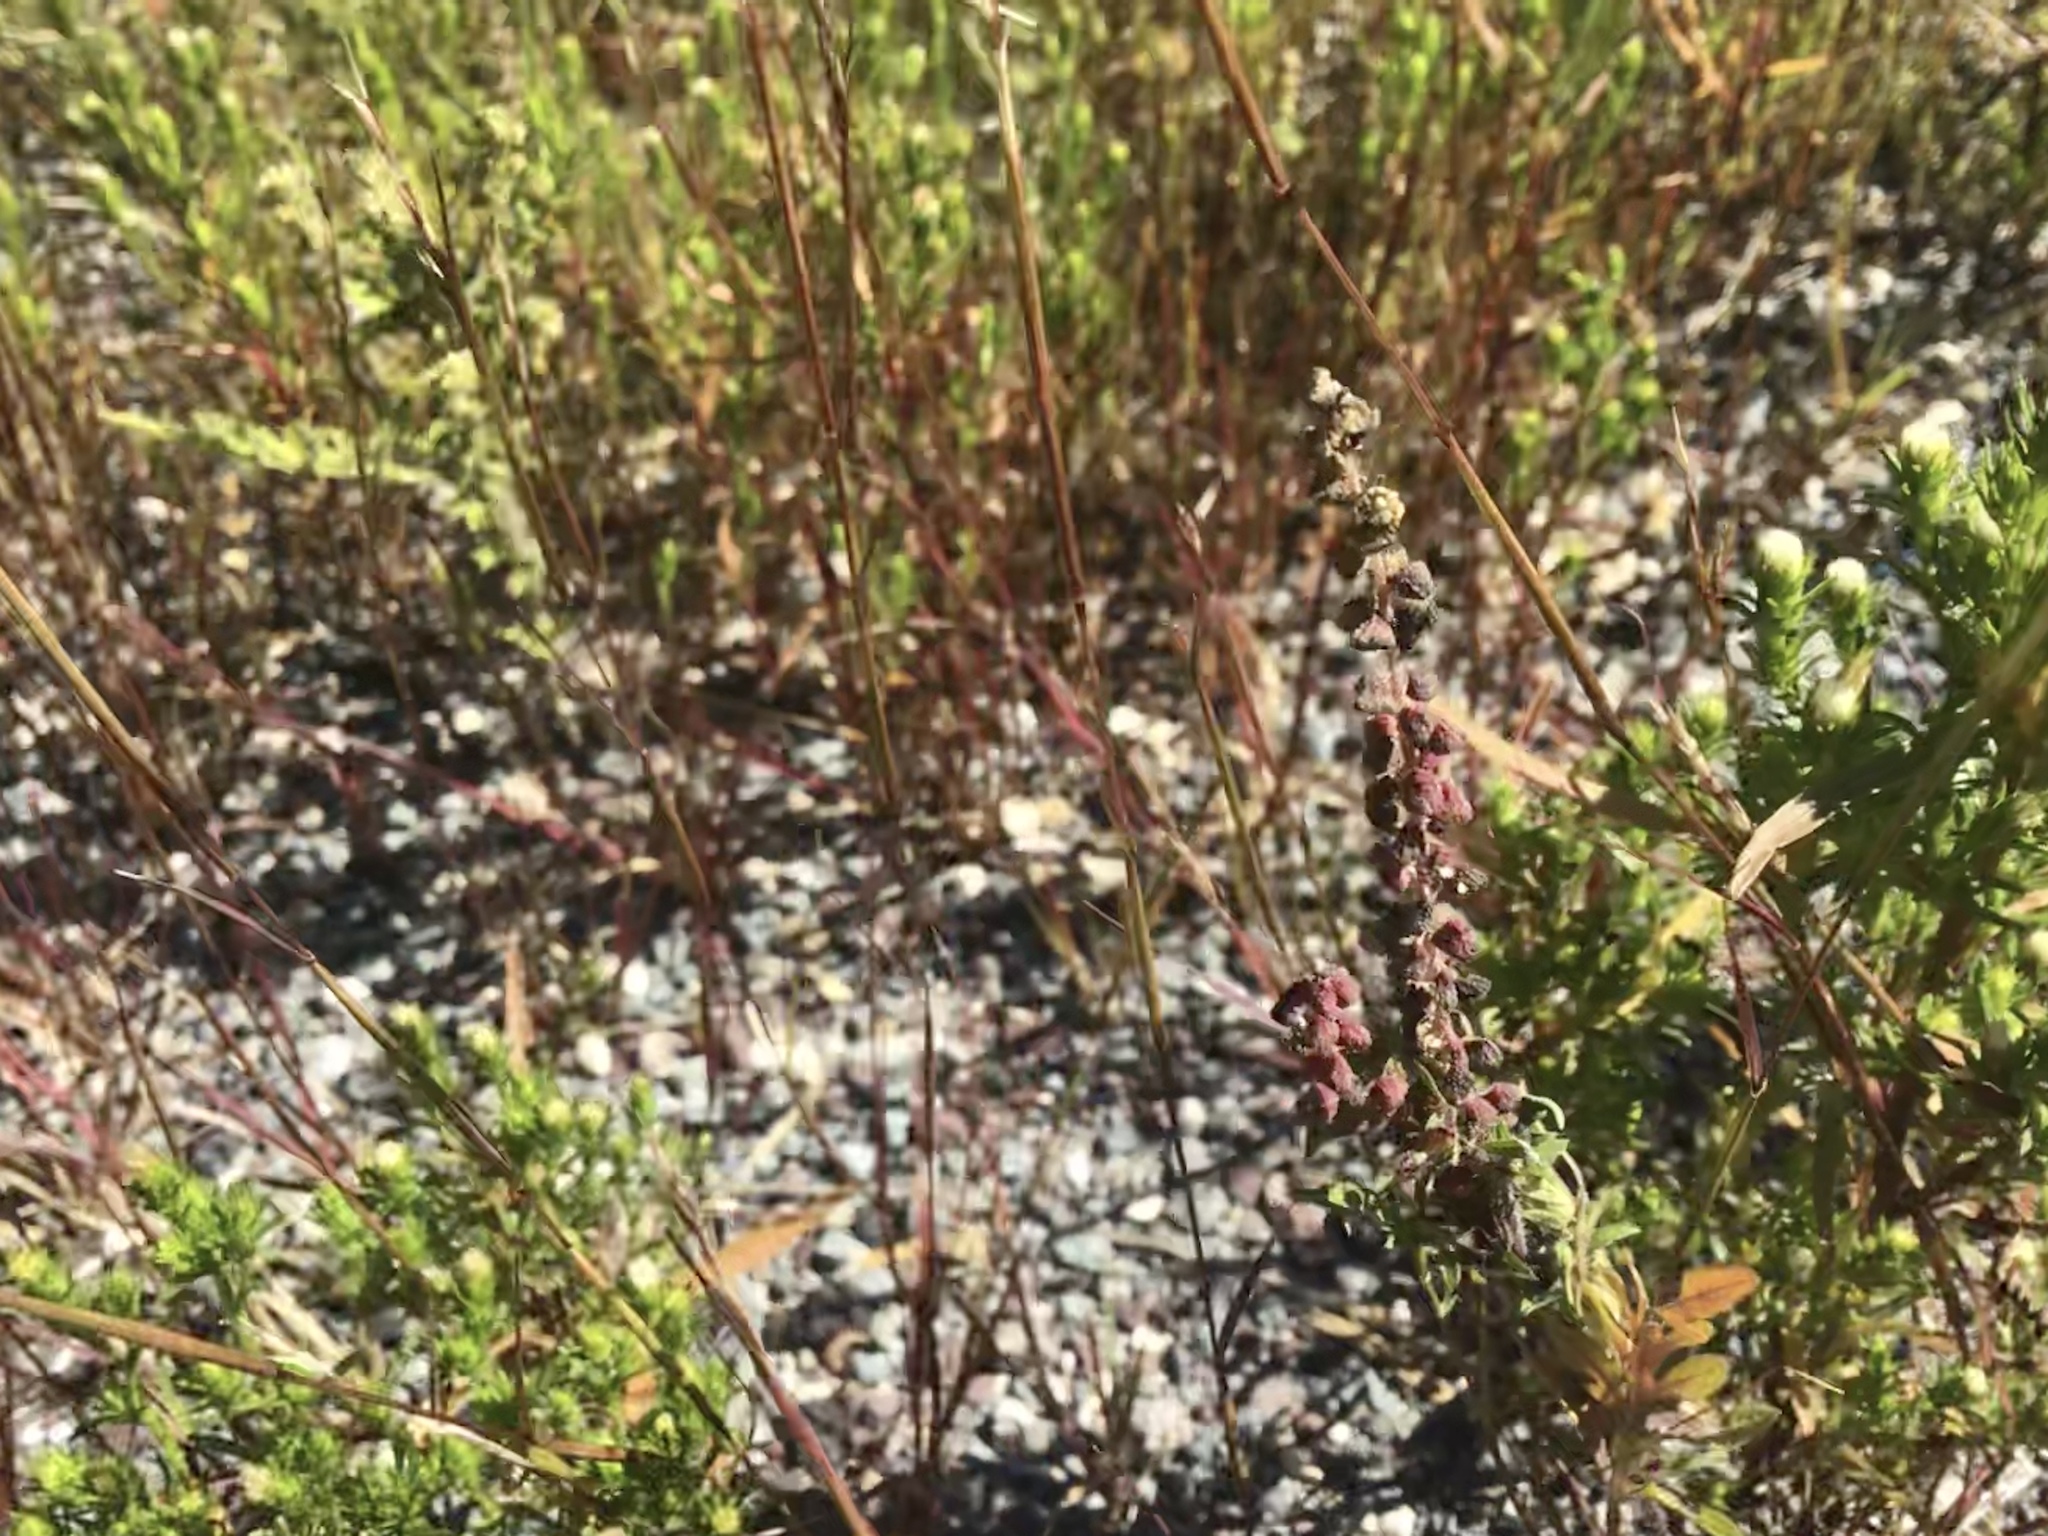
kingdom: Plantae
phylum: Tracheophyta
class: Magnoliopsida
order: Asterales
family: Asteraceae
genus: Symphyotrichum
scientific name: Symphyotrichum ciliatum
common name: Rayless annual aster
